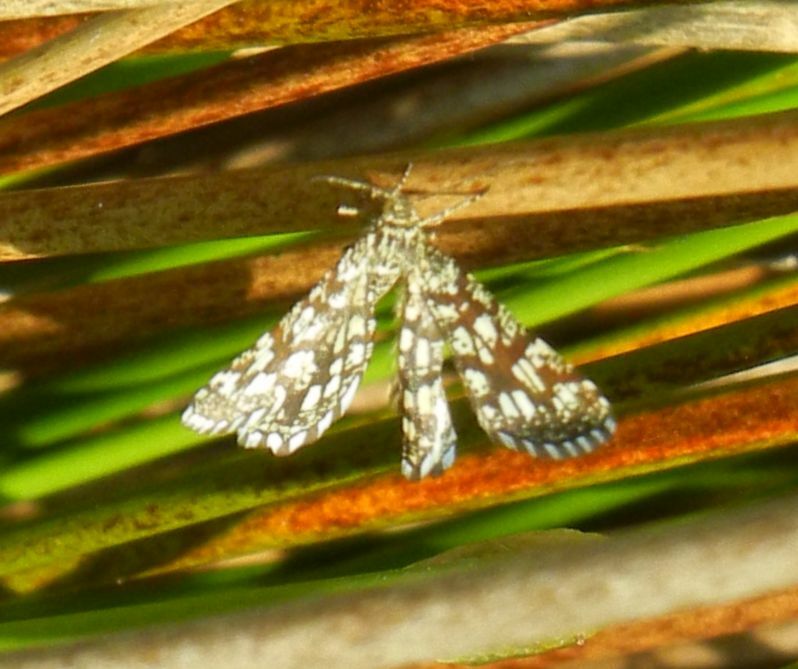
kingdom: Animalia
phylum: Arthropoda
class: Insecta
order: Lepidoptera
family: Geometridae
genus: Chiasmia
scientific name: Chiasmia clathrata
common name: Latticed heath
